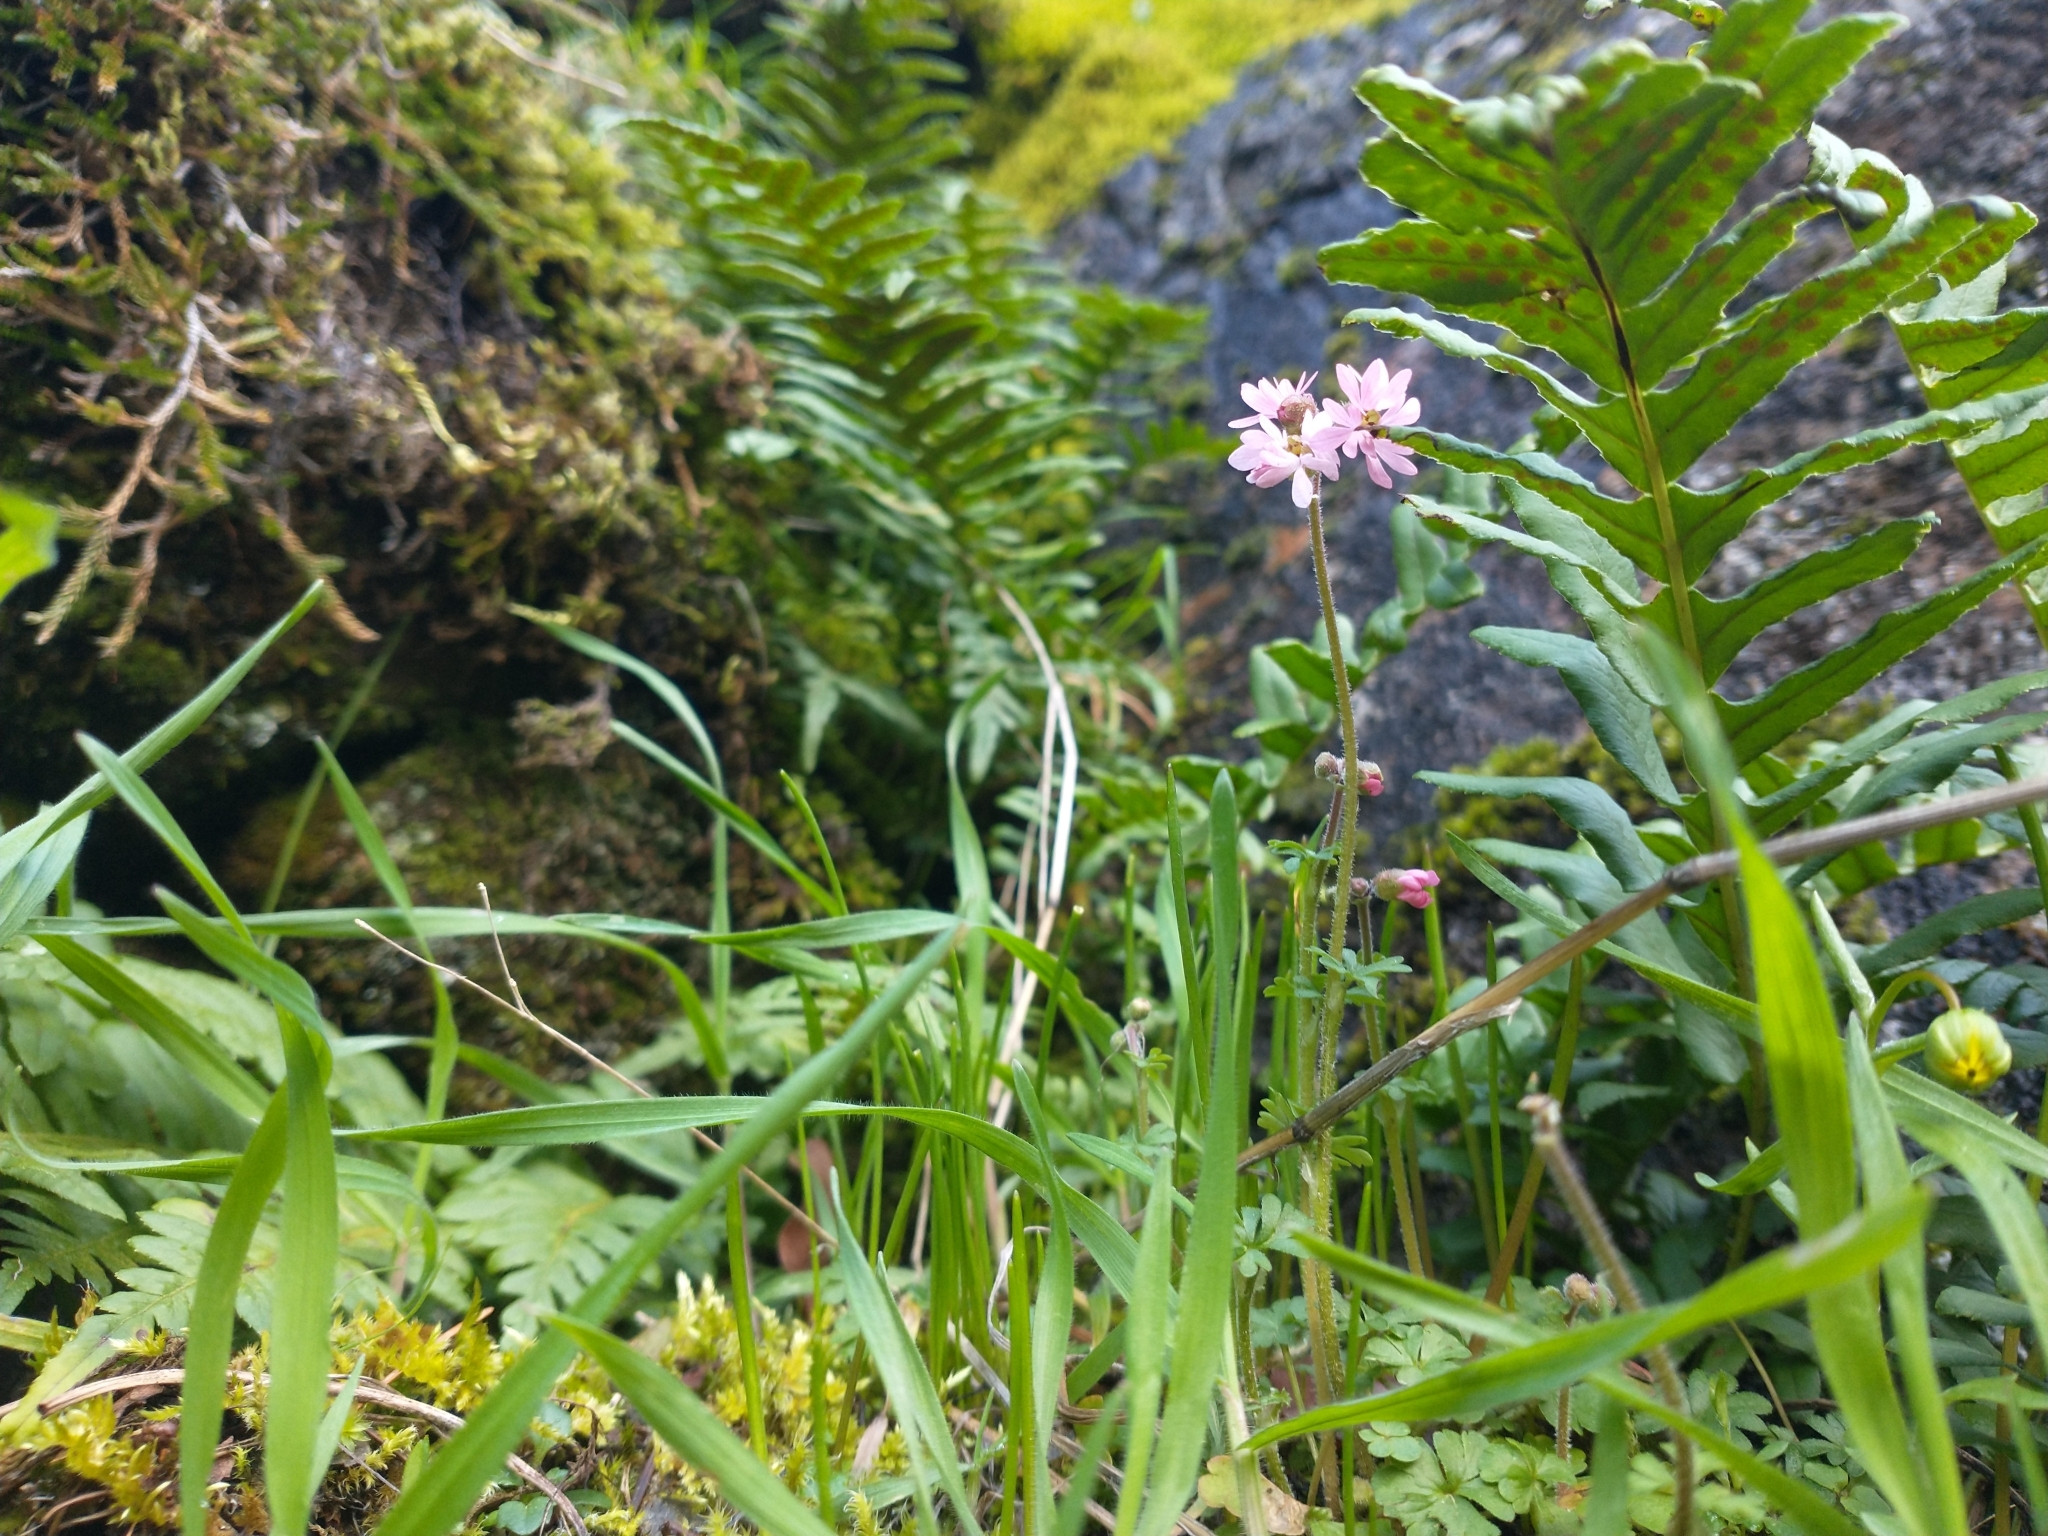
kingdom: Plantae
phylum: Tracheophyta
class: Magnoliopsida
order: Saxifragales
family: Saxifragaceae
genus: Lithophragma
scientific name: Lithophragma glabrum
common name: Bulbous prairie-star
